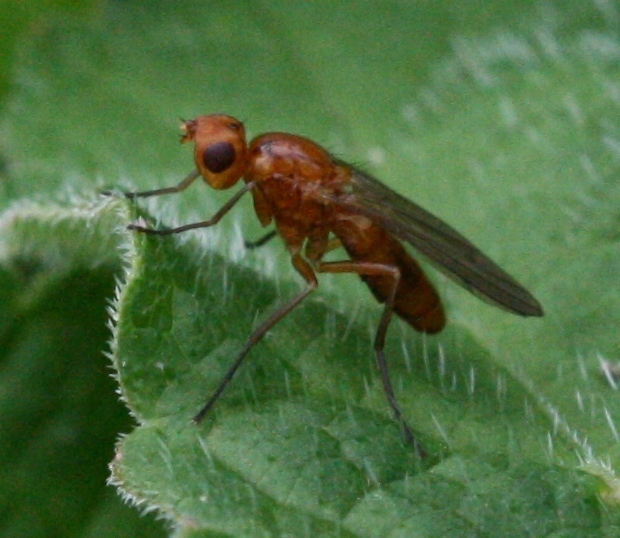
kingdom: Animalia
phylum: Arthropoda
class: Insecta
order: Diptera
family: Psilidae
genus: Psila
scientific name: Psila merdaria
